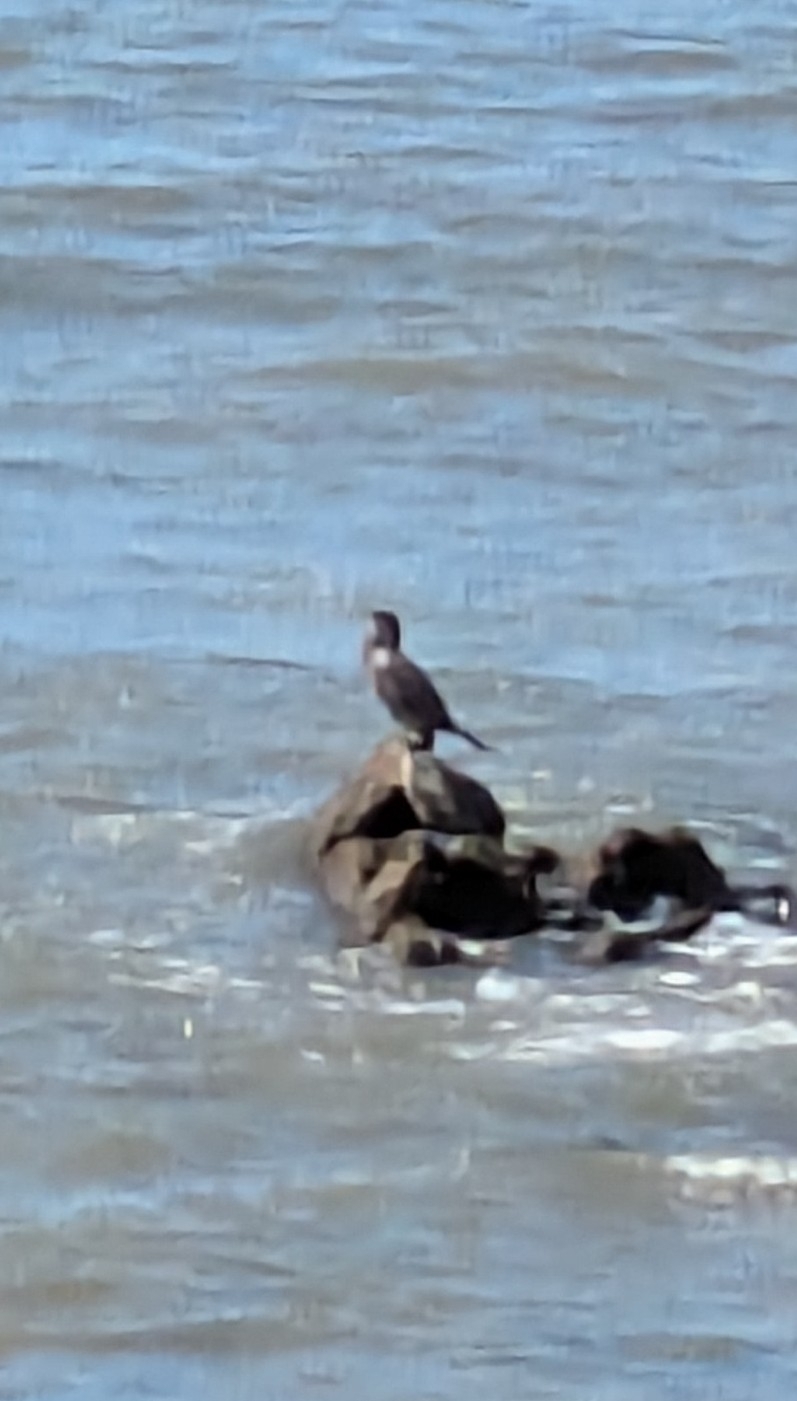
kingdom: Animalia
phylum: Chordata
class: Aves
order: Suliformes
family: Phalacrocoracidae
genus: Phalacrocorax
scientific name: Phalacrocorax brasilianus
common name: Neotropic cormorant
